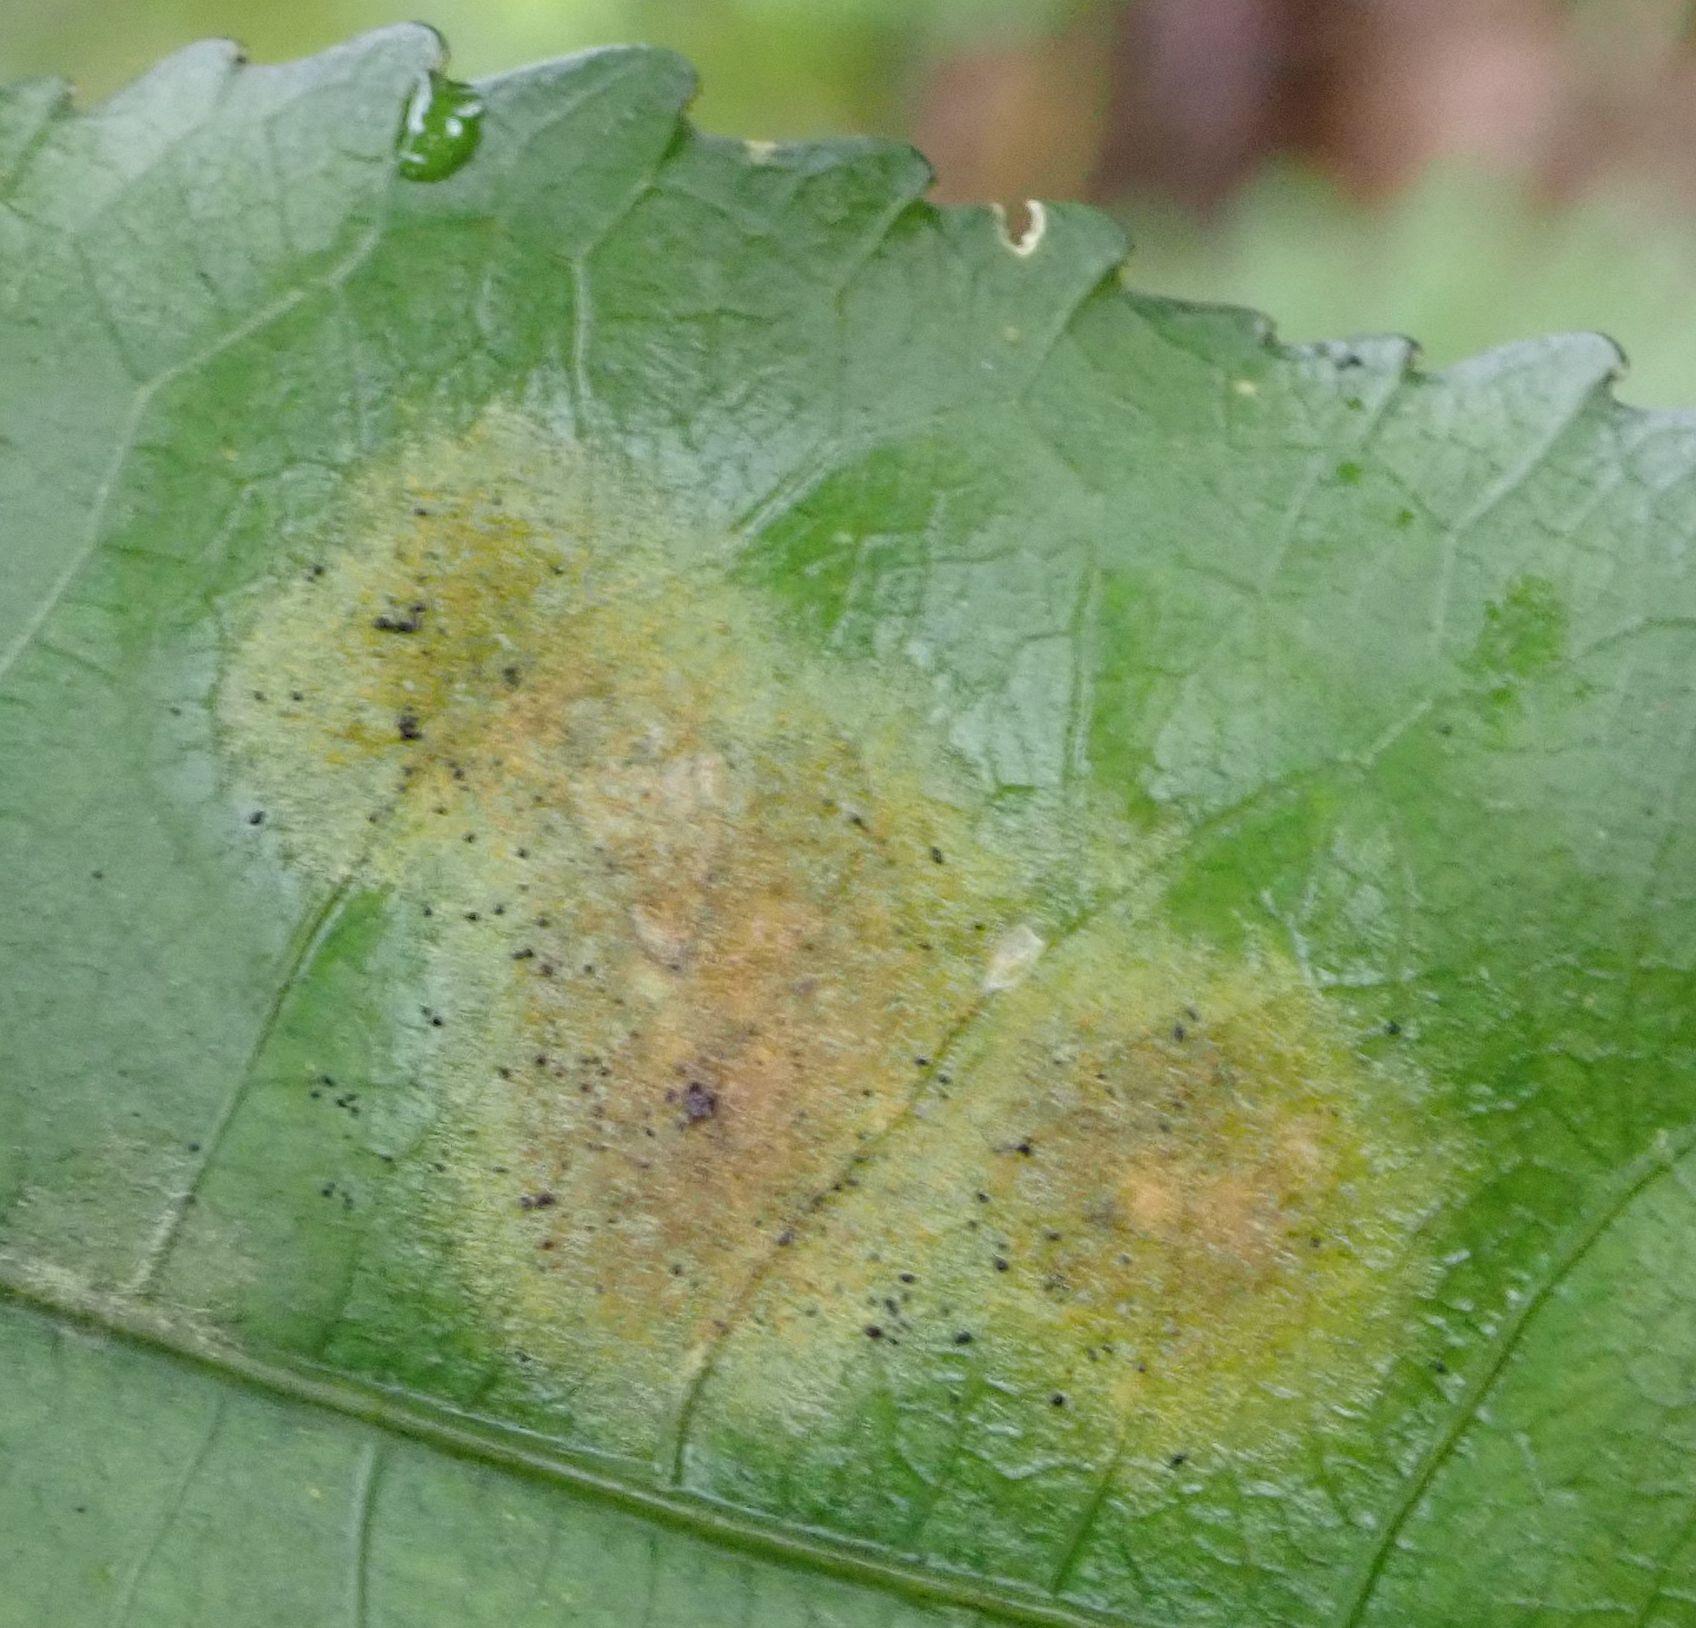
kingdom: Plantae
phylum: Chlorophyta
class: Ulvophyceae
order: Trentepohliales
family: Trentepohliaceae
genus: Cephaleuros
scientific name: Cephaleuros
